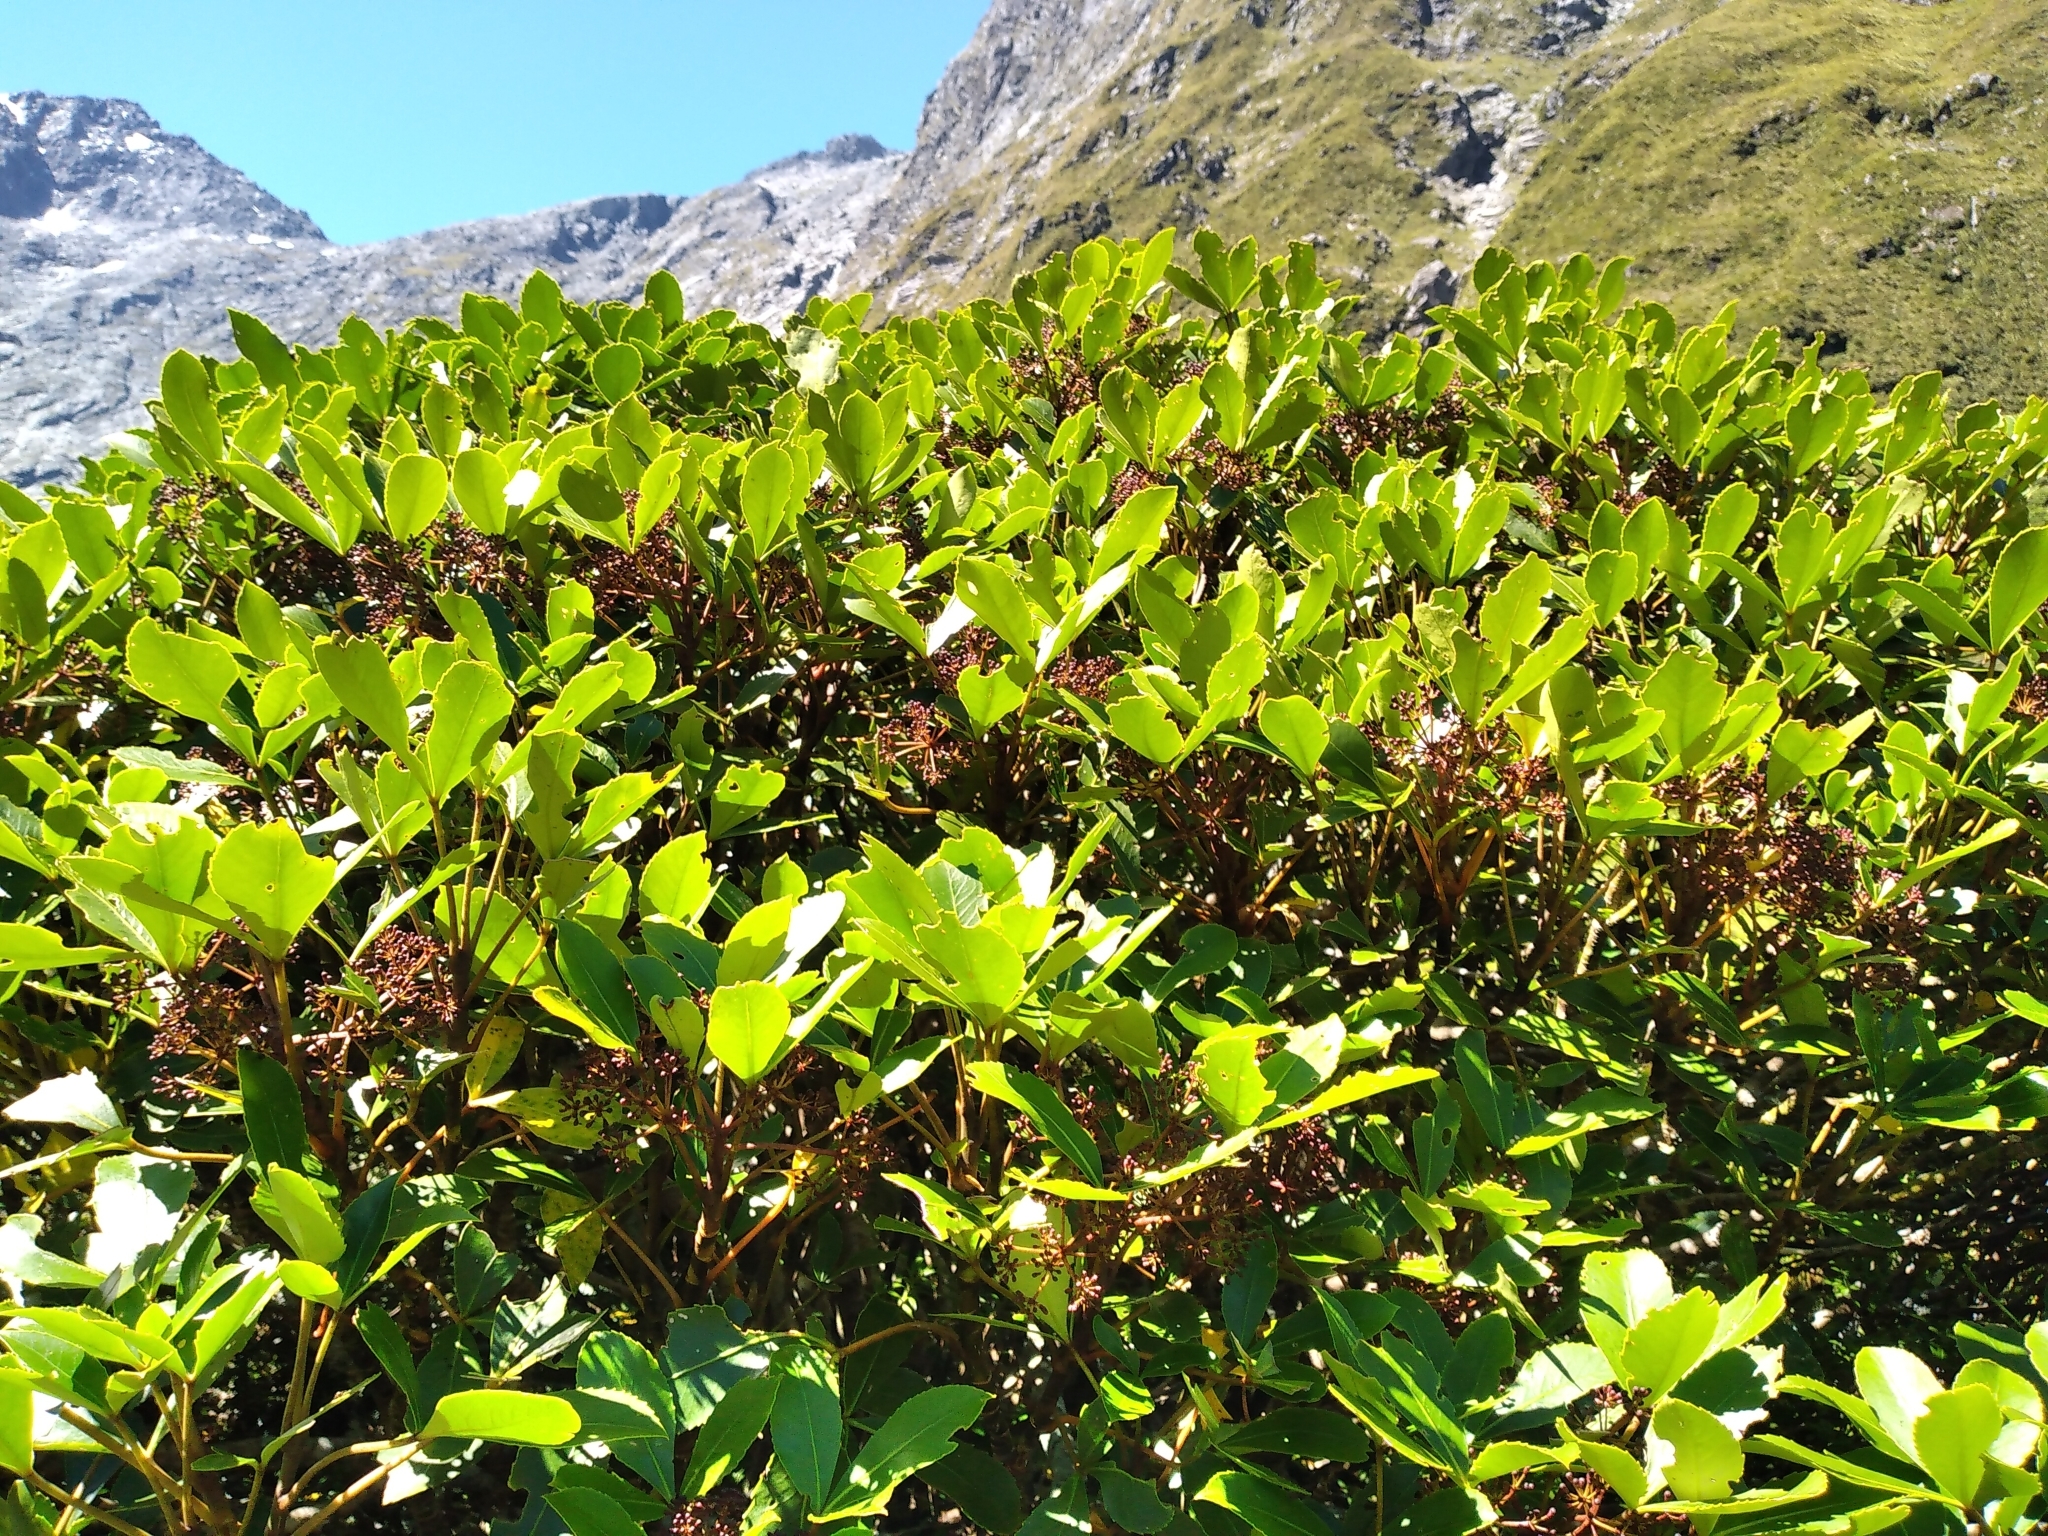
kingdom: Plantae
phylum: Tracheophyta
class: Magnoliopsida
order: Apiales
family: Araliaceae
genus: Neopanax
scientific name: Neopanax colensoi
